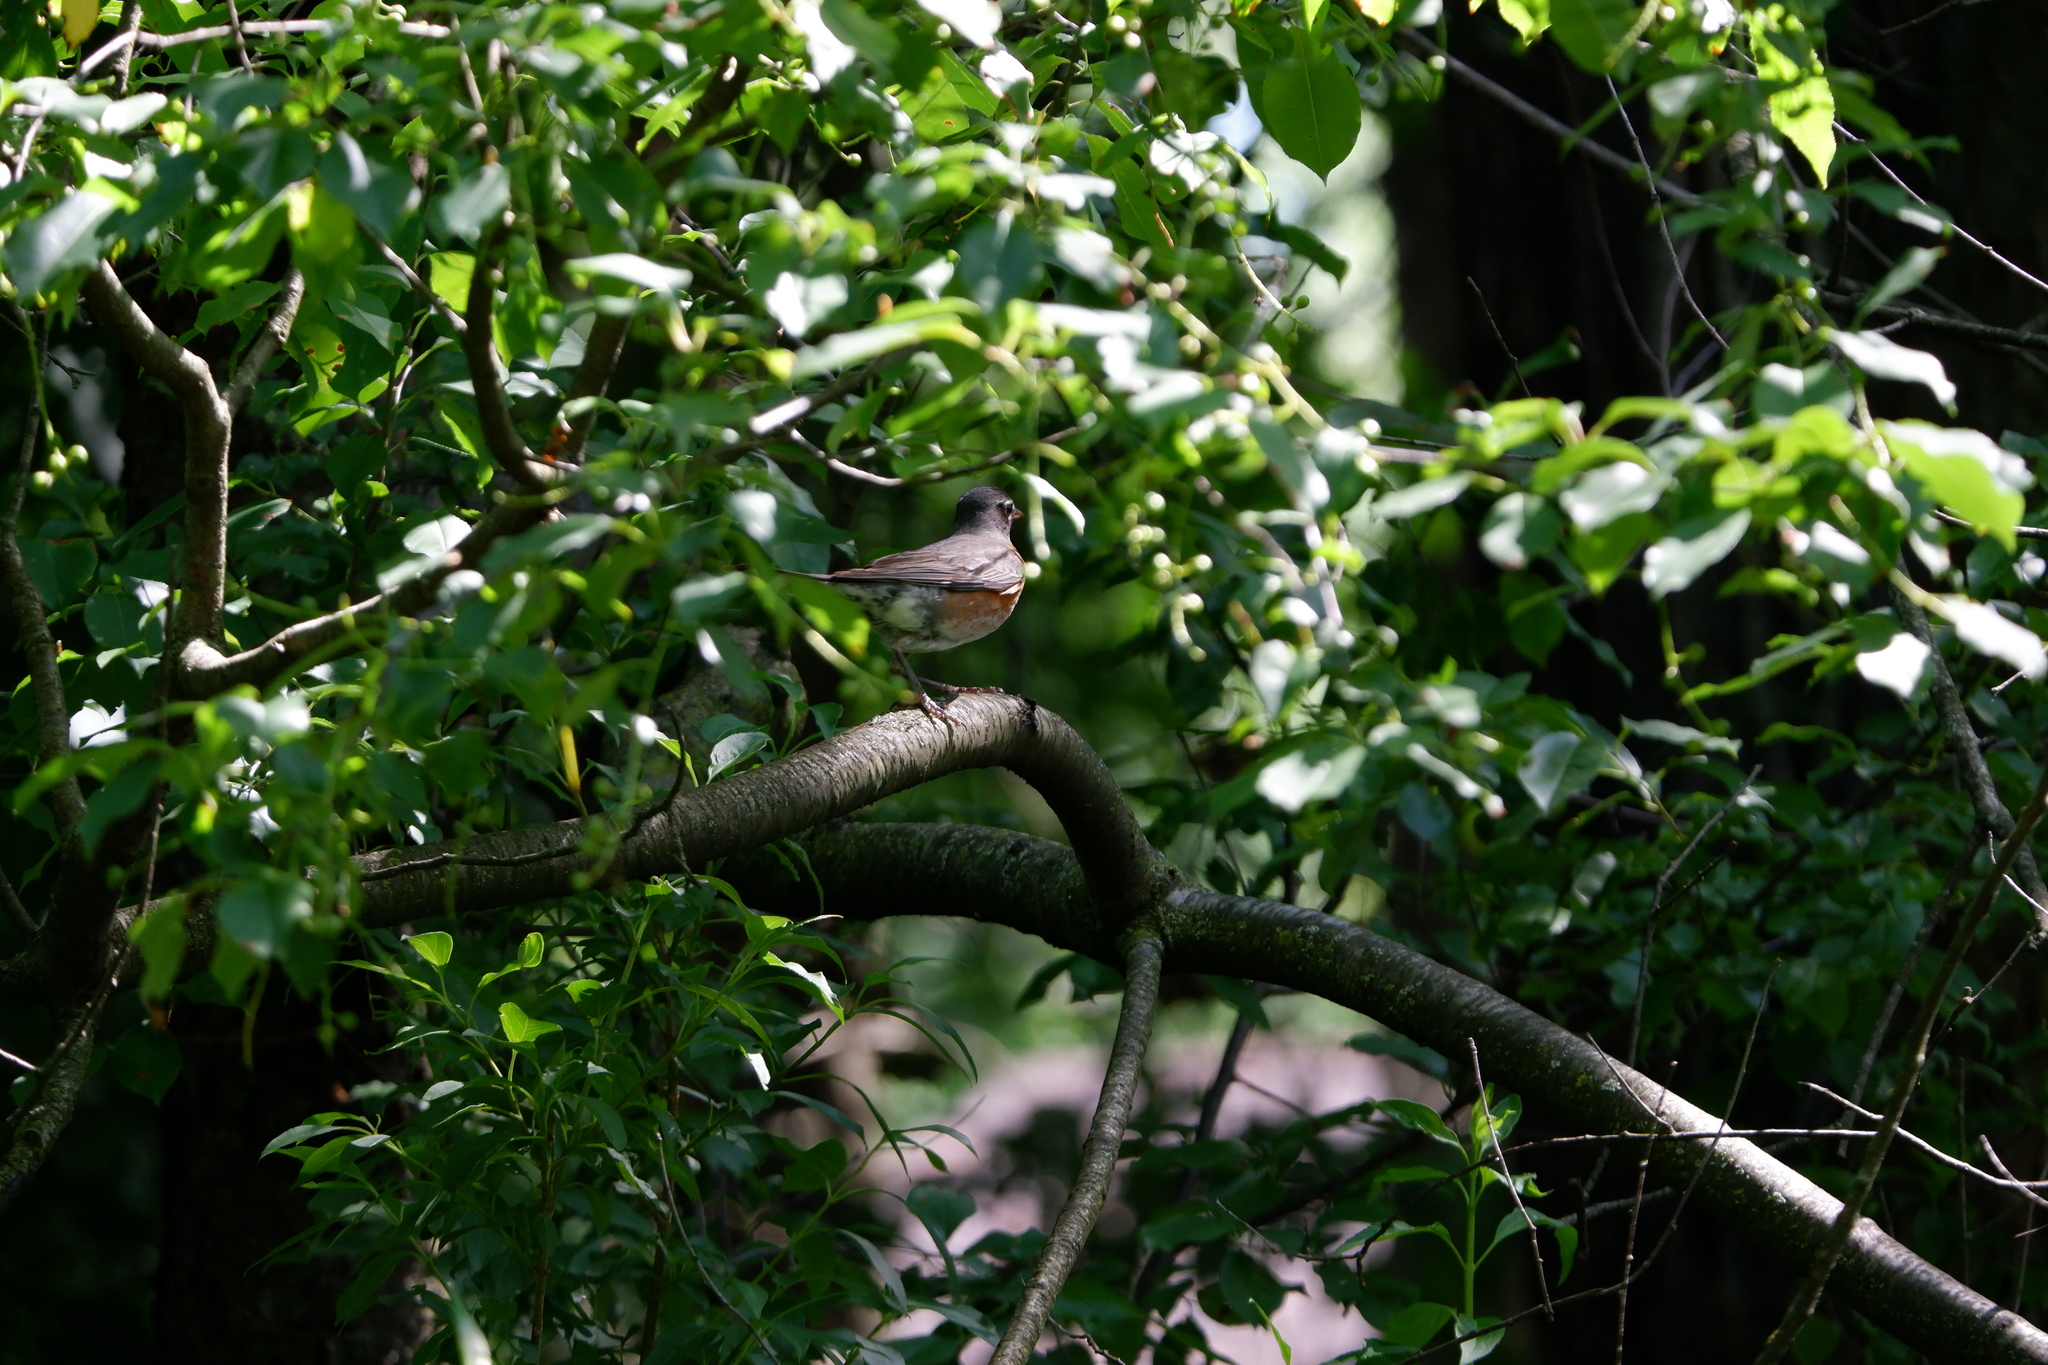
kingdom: Animalia
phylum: Chordata
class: Aves
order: Passeriformes
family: Turdidae
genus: Turdus
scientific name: Turdus migratorius
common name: American robin
